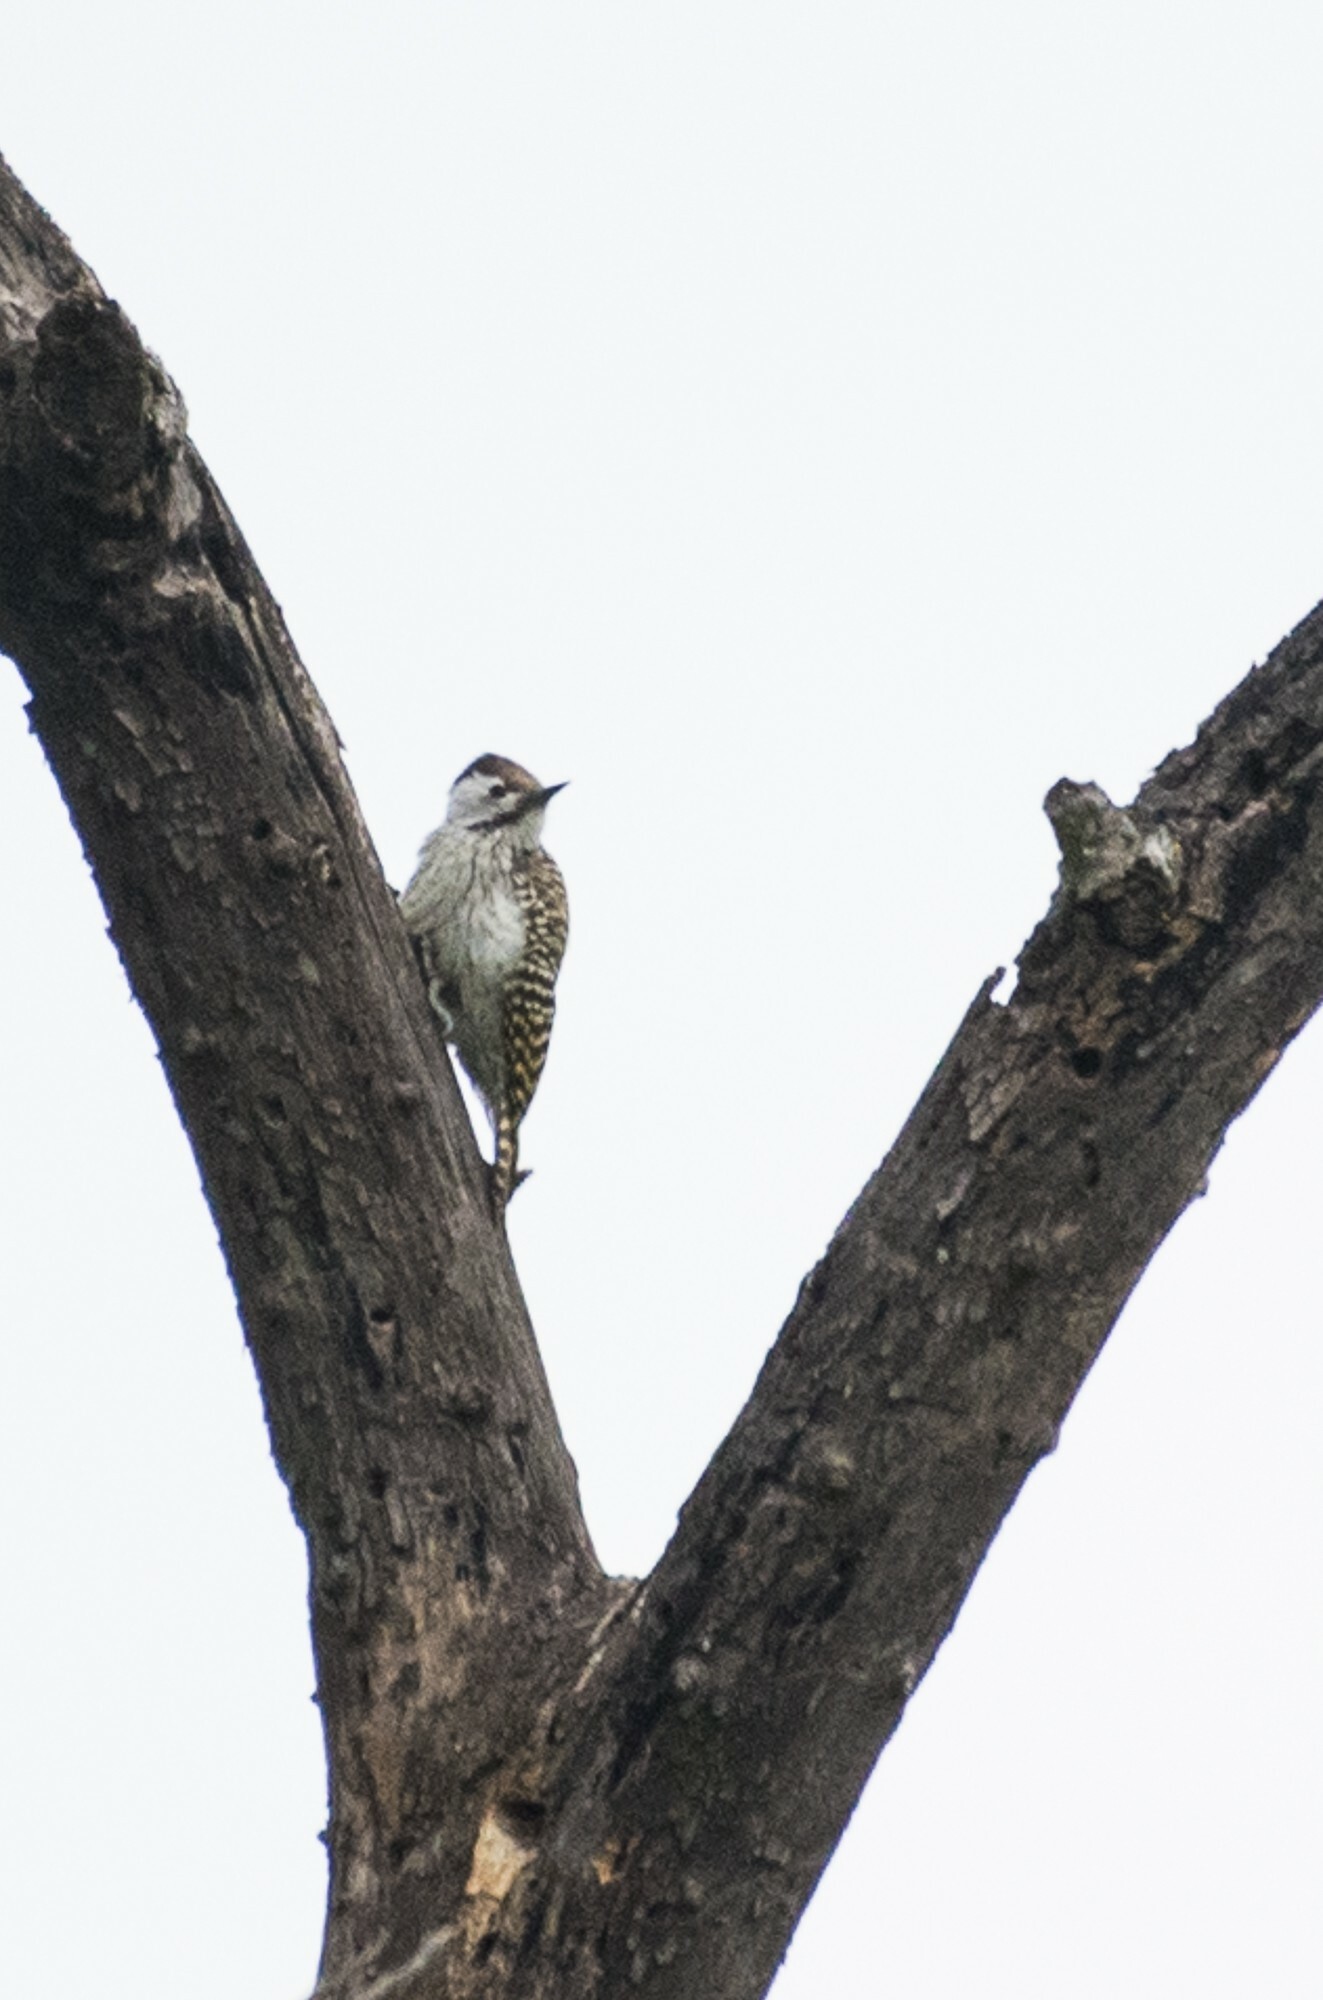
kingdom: Animalia
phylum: Chordata
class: Aves
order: Piciformes
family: Picidae
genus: Dendropicos
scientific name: Dendropicos fuscescens
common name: Cardinal woodpecker
